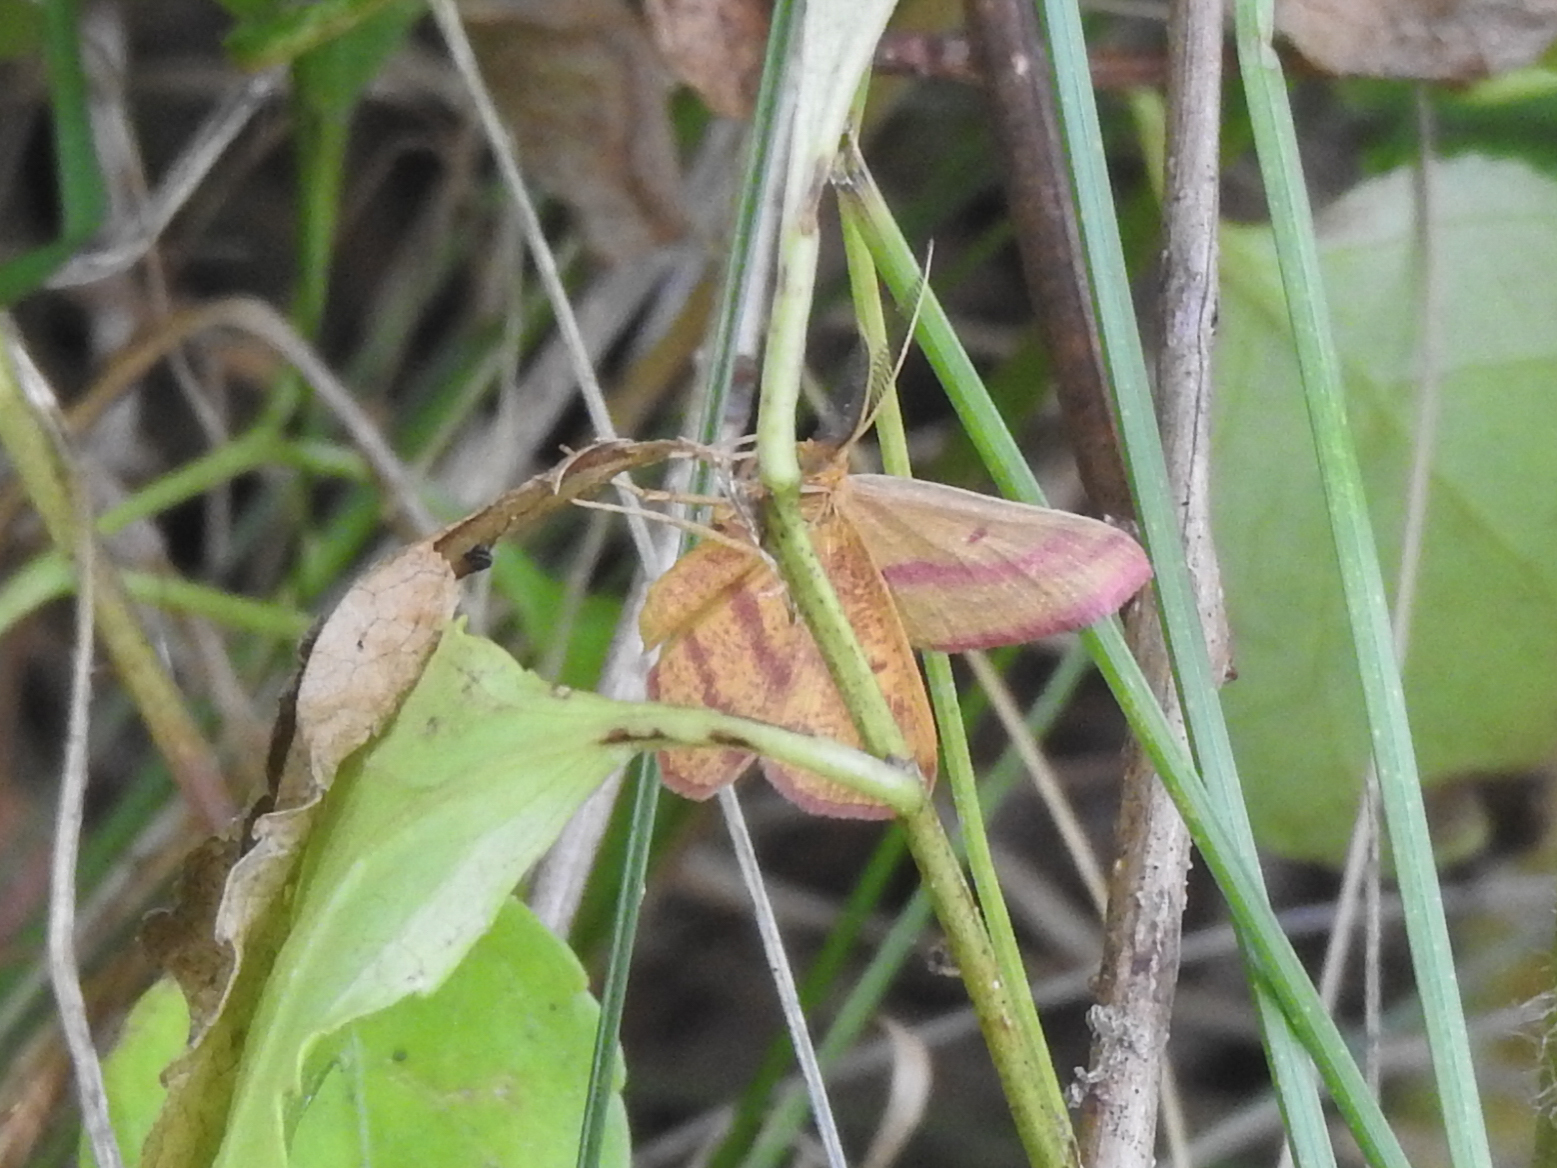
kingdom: Animalia
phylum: Arthropoda
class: Insecta
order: Lepidoptera
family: Geometridae
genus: Haematopis
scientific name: Haematopis grataria
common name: Chickweed geometer
